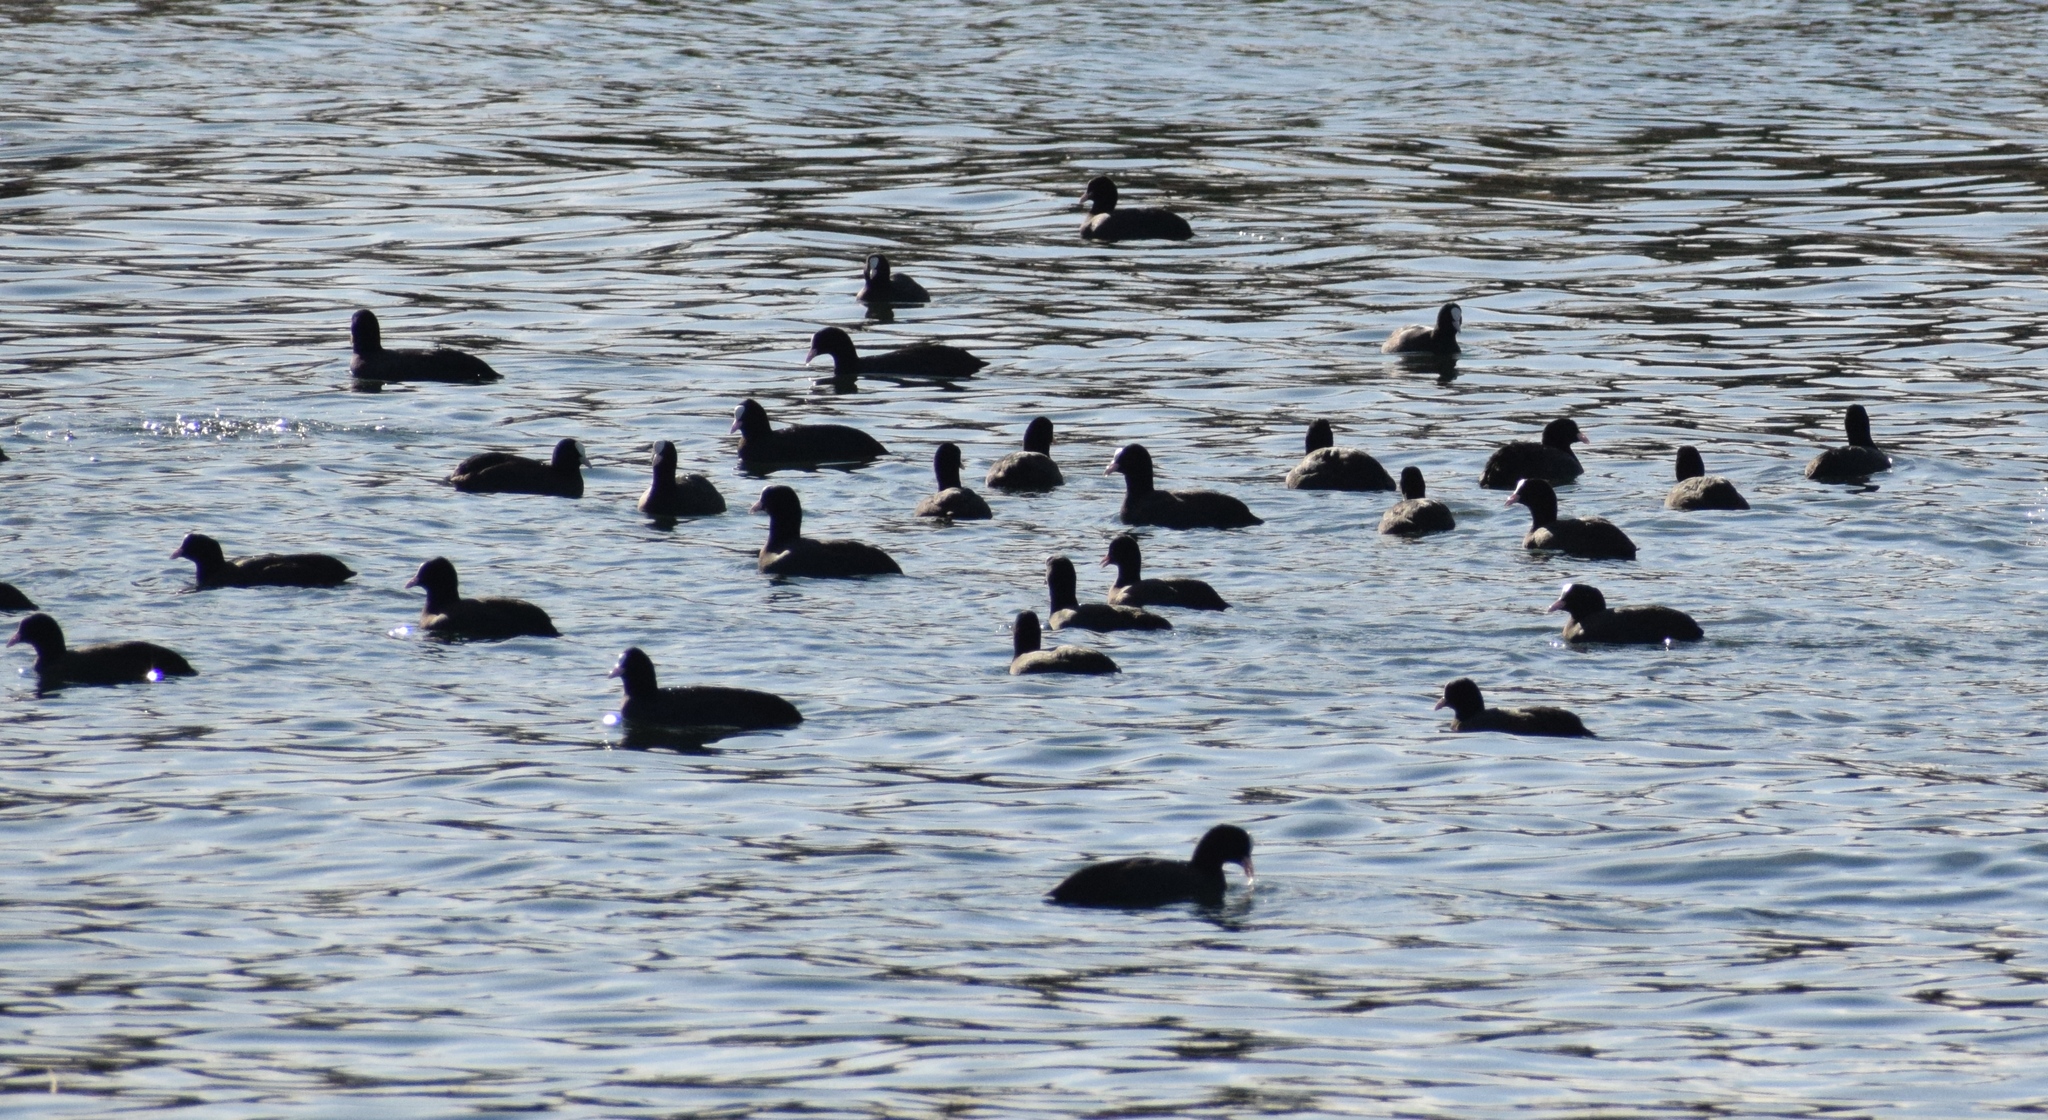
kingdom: Animalia
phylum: Chordata
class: Aves
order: Gruiformes
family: Rallidae
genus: Fulica
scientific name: Fulica atra
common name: Eurasian coot
